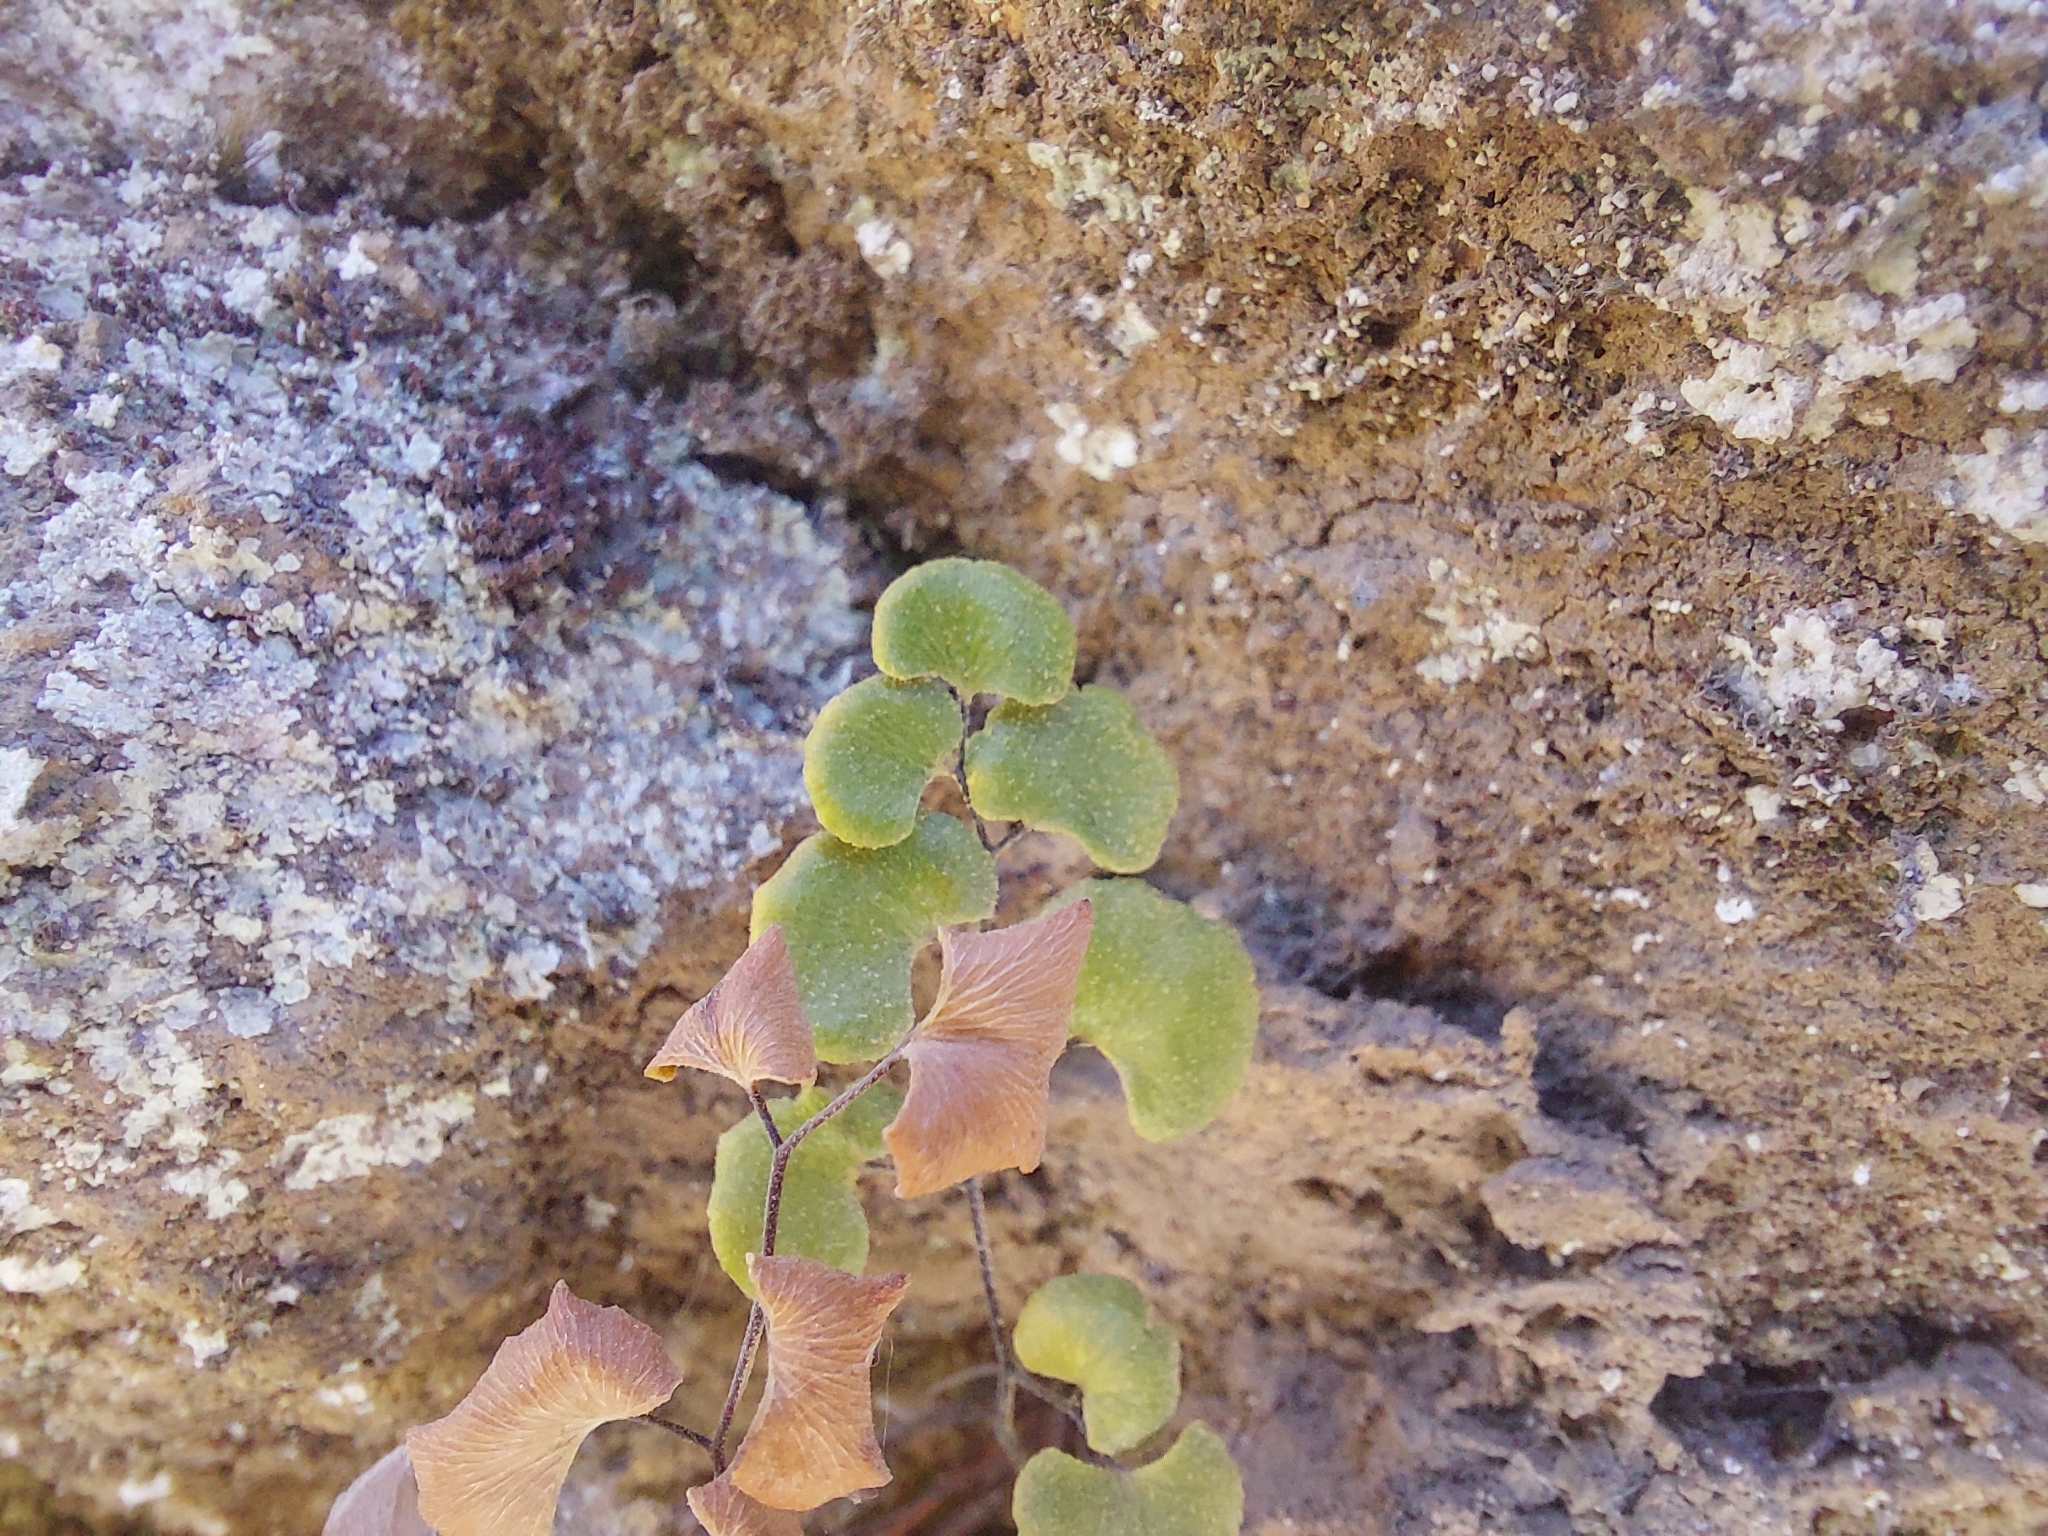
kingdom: Plantae
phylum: Tracheophyta
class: Polypodiopsida
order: Polypodiales
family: Pteridaceae
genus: Adiantum
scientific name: Adiantum chilense
